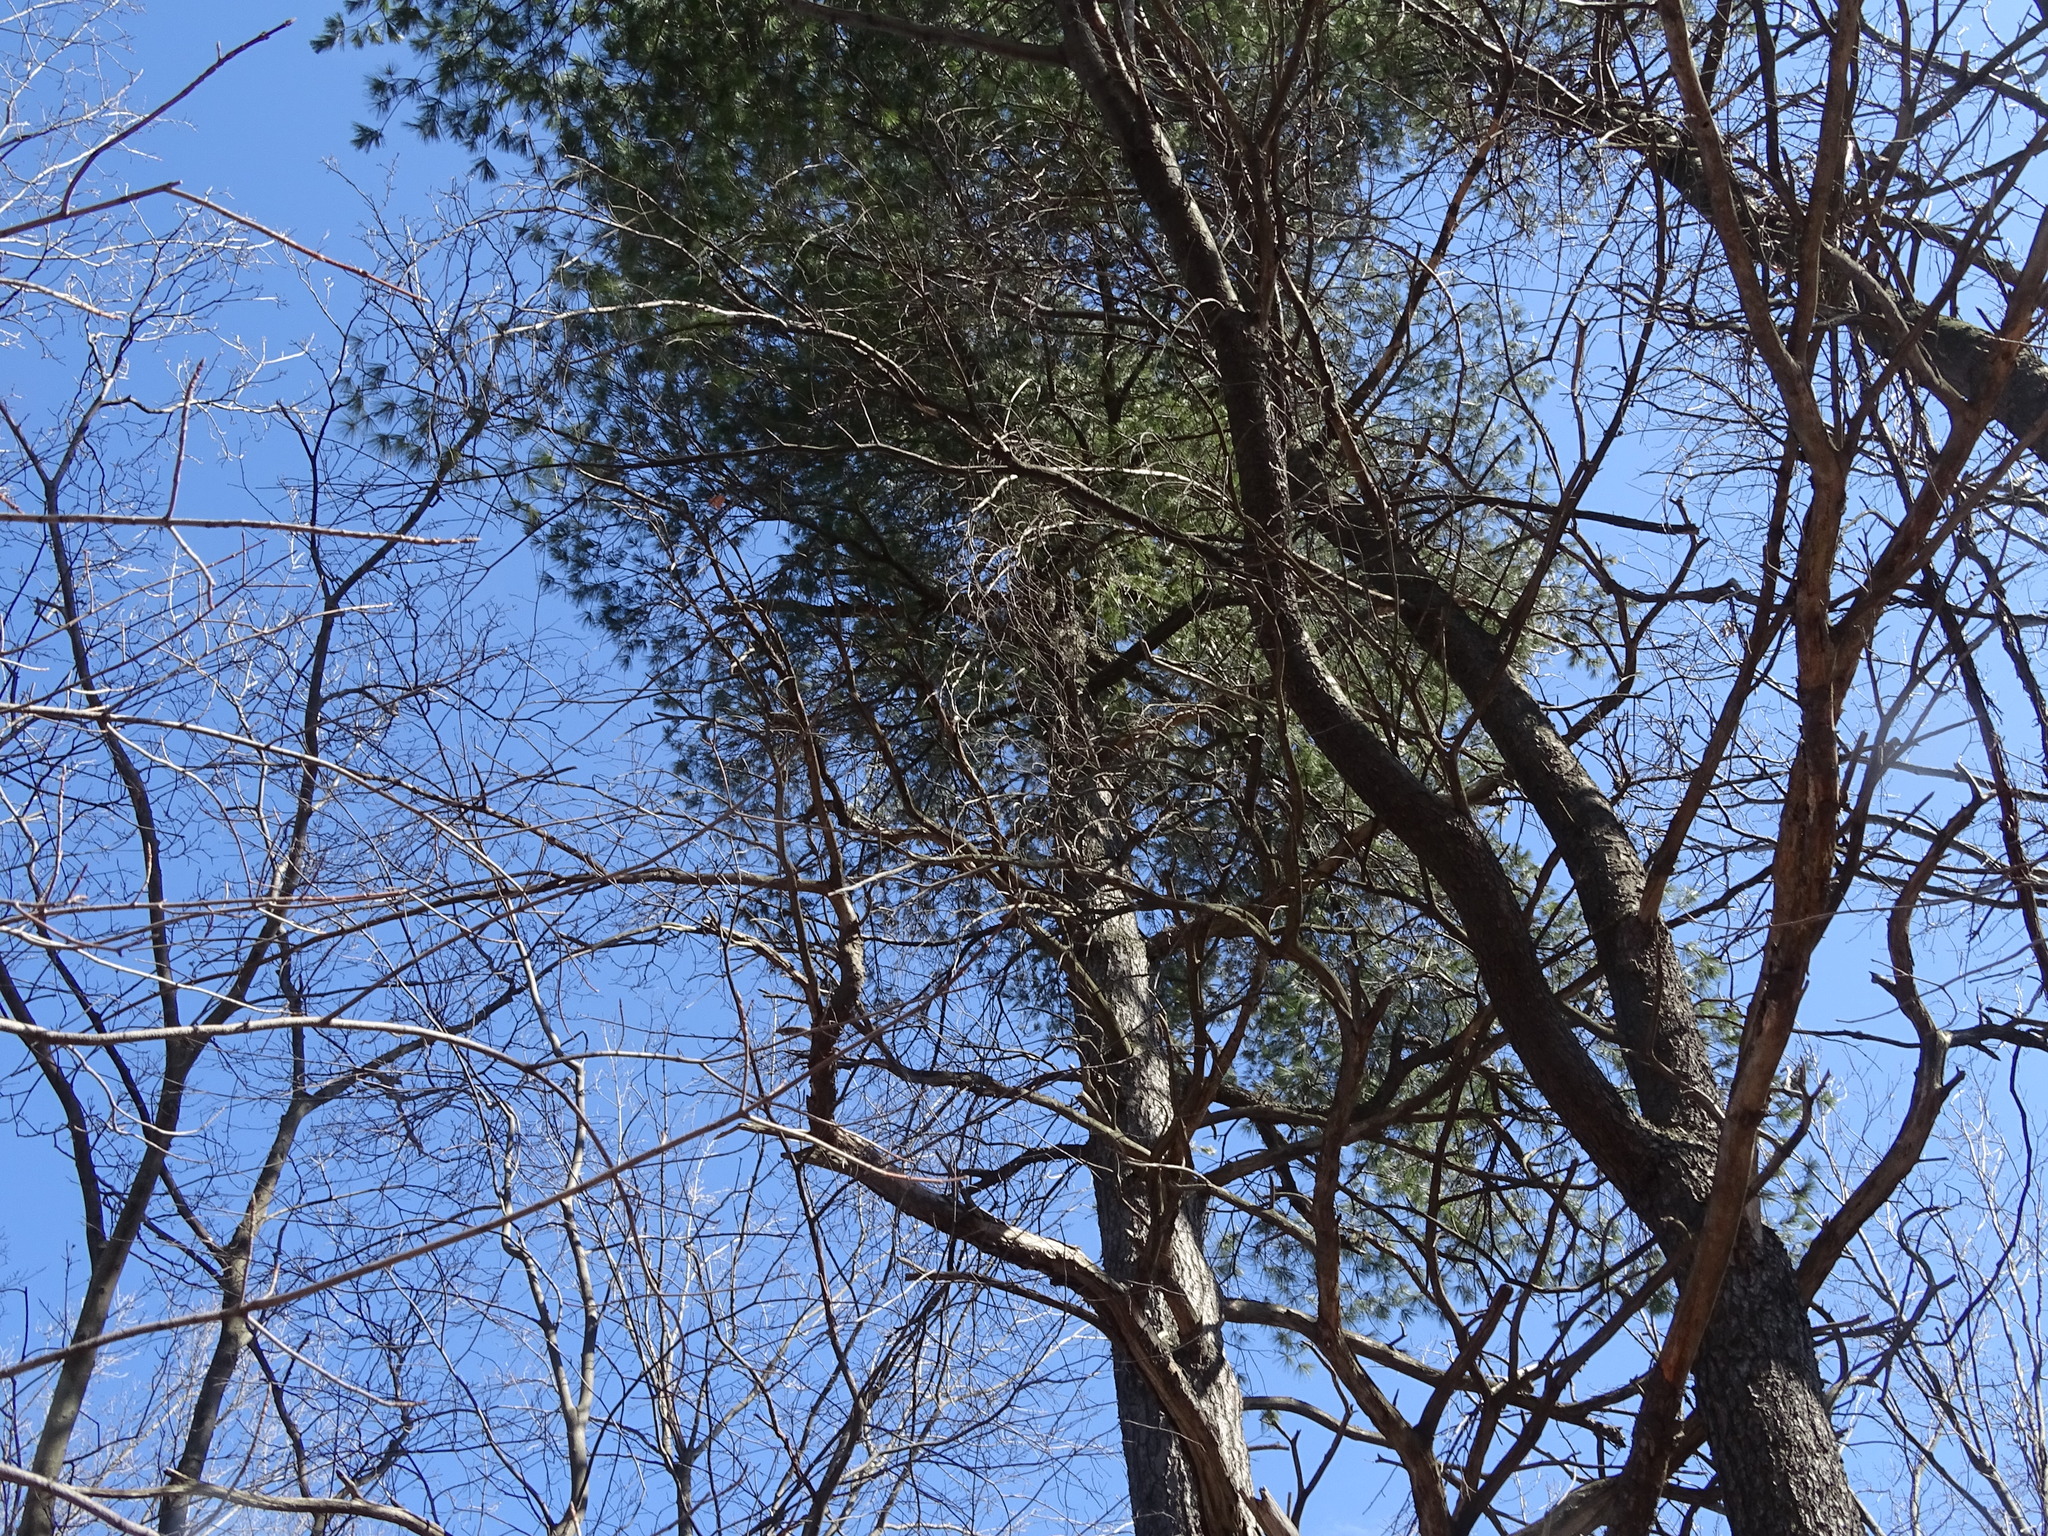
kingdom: Plantae
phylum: Tracheophyta
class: Pinopsida
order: Pinales
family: Pinaceae
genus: Pinus
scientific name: Pinus strobus
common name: Weymouth pine
